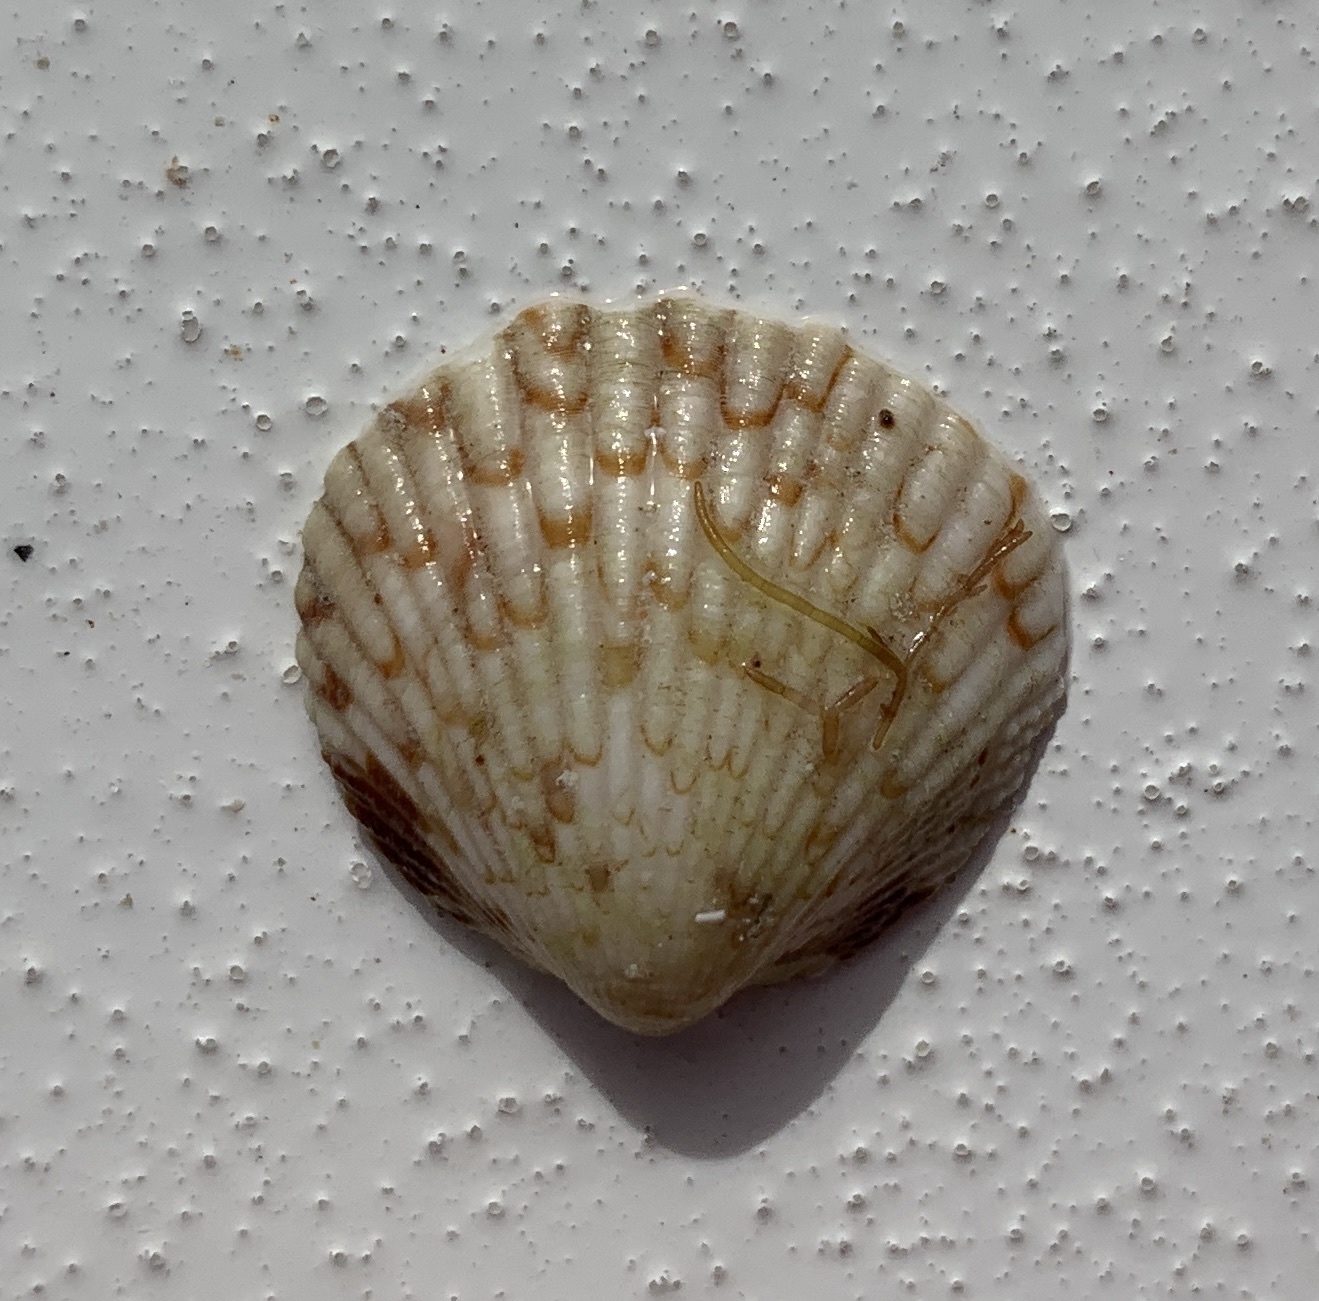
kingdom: Animalia
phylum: Mollusca
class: Bivalvia
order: Arcida
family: Glycymerididae
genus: Tucetona
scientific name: Tucetona pectinata
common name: Comb bittersweet
